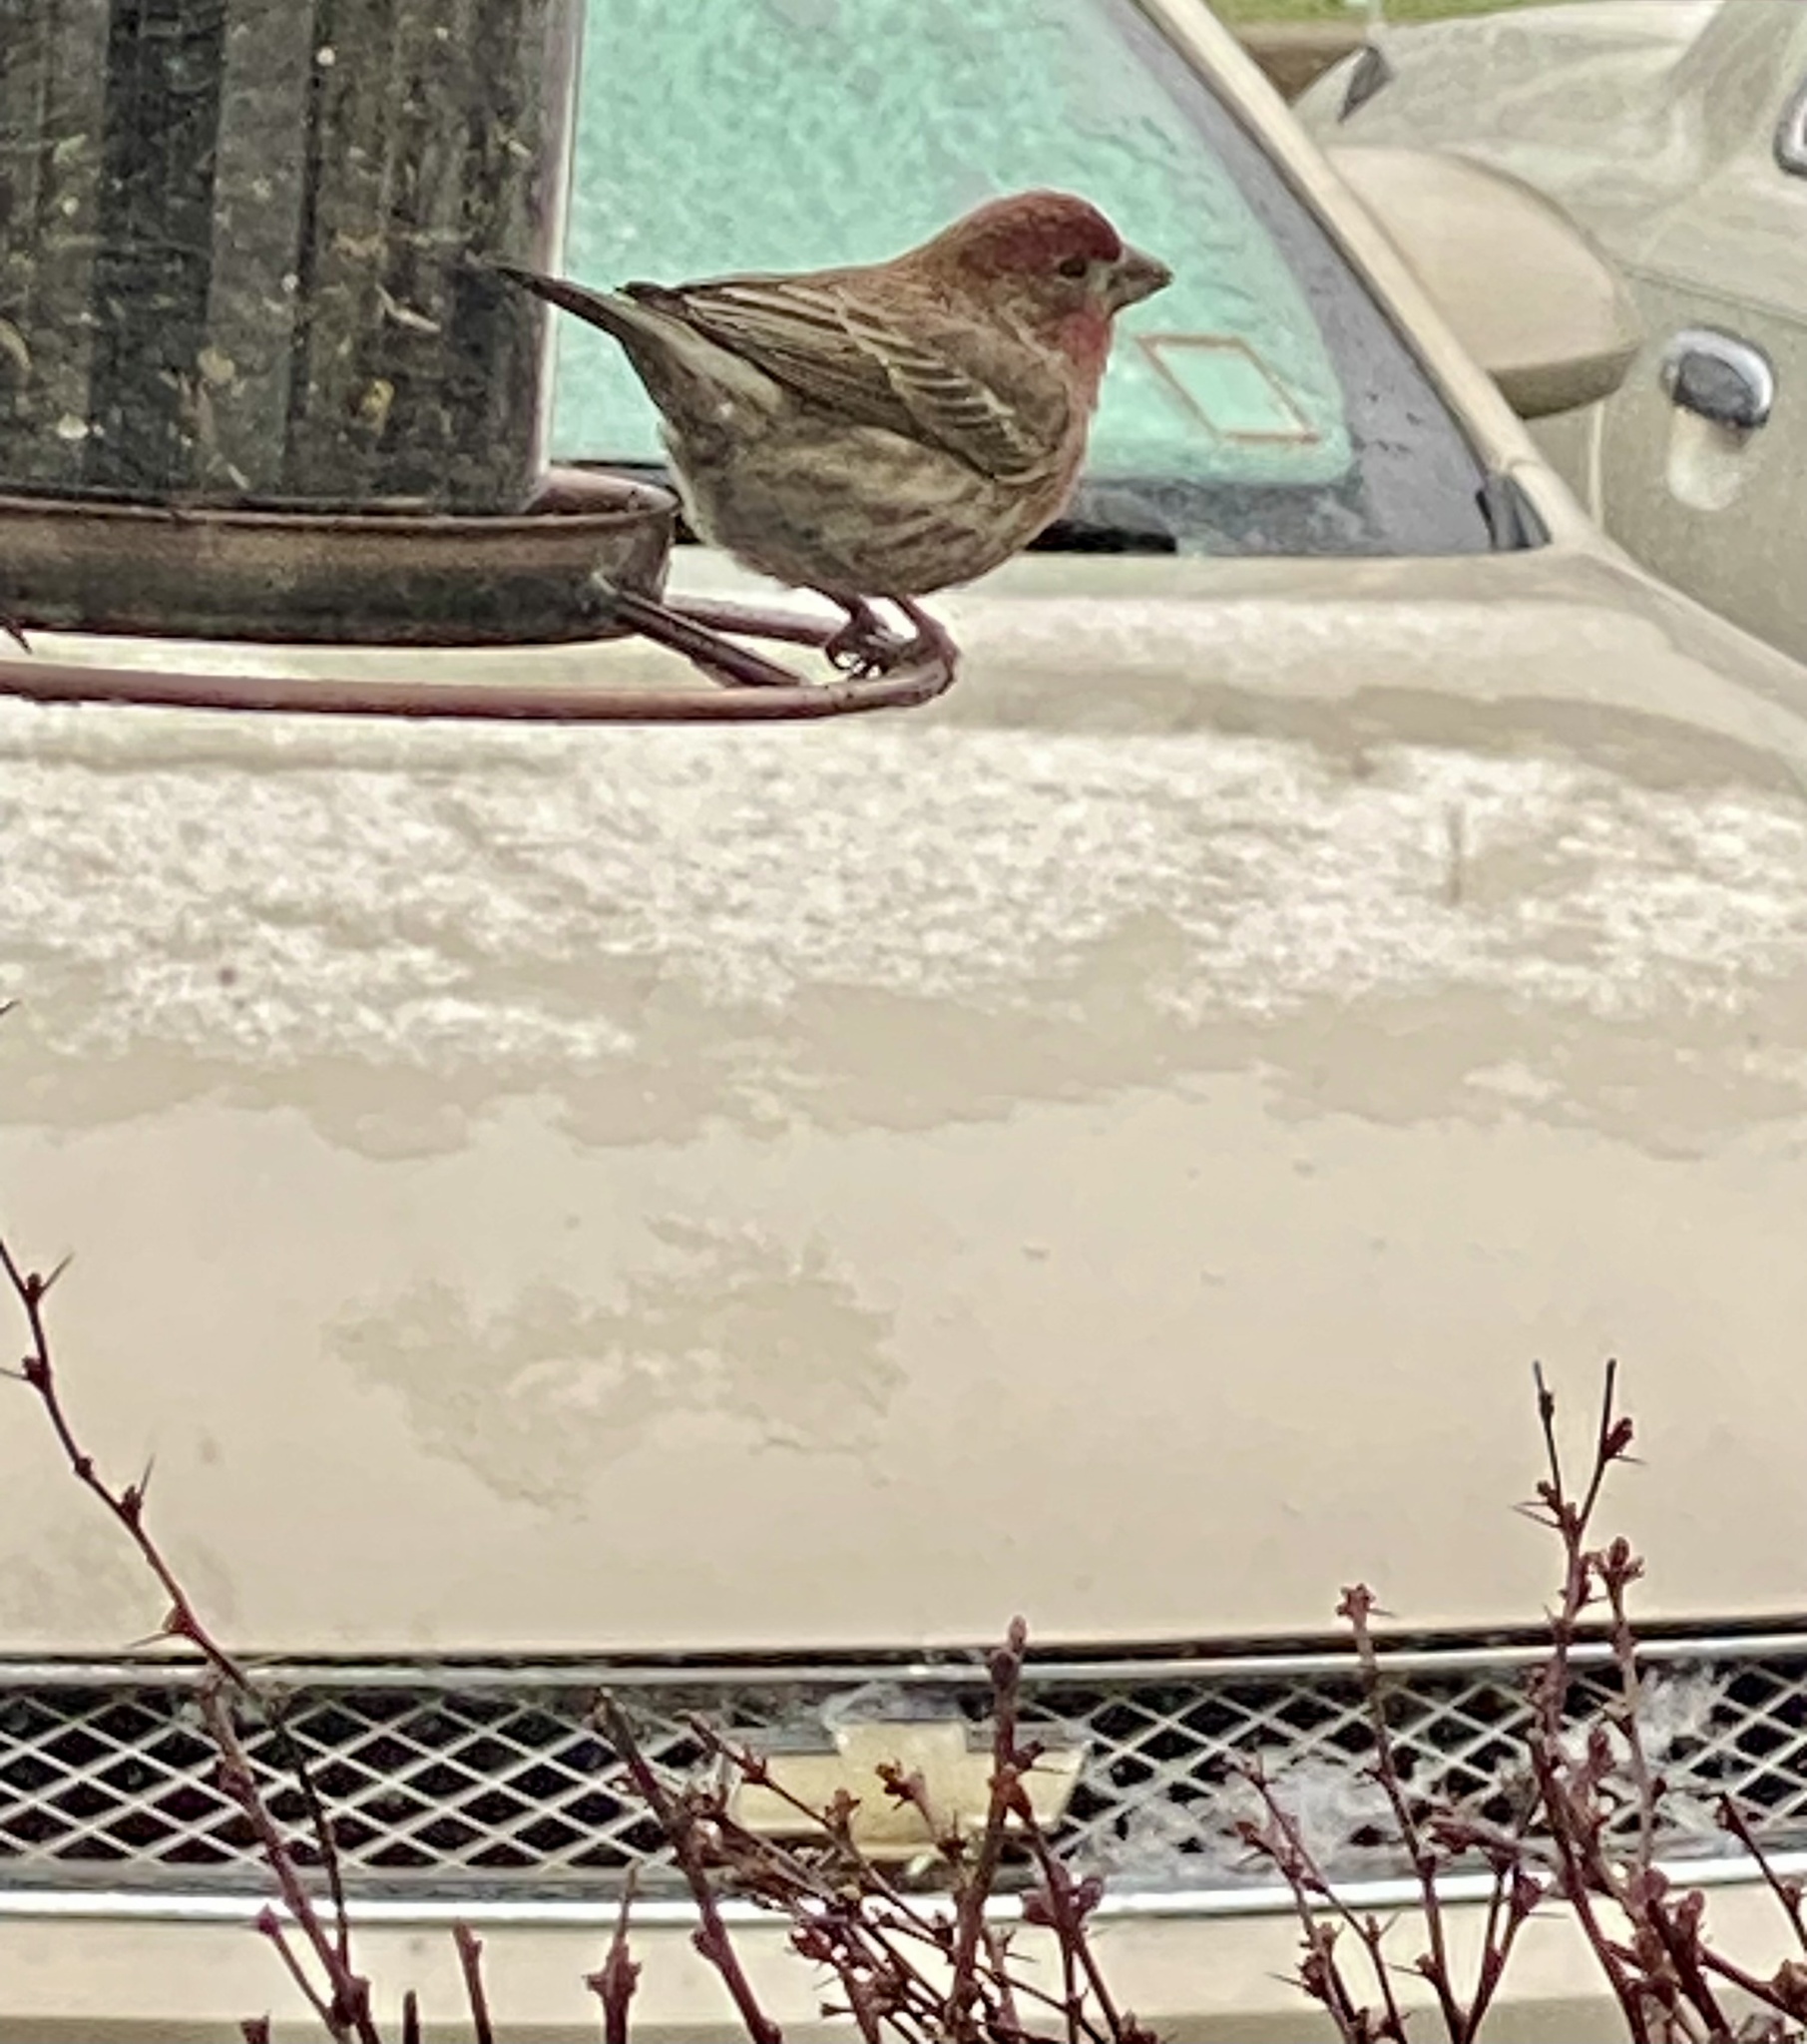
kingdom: Animalia
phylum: Chordata
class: Aves
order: Passeriformes
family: Fringillidae
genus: Haemorhous
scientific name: Haemorhous mexicanus
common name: House finch
